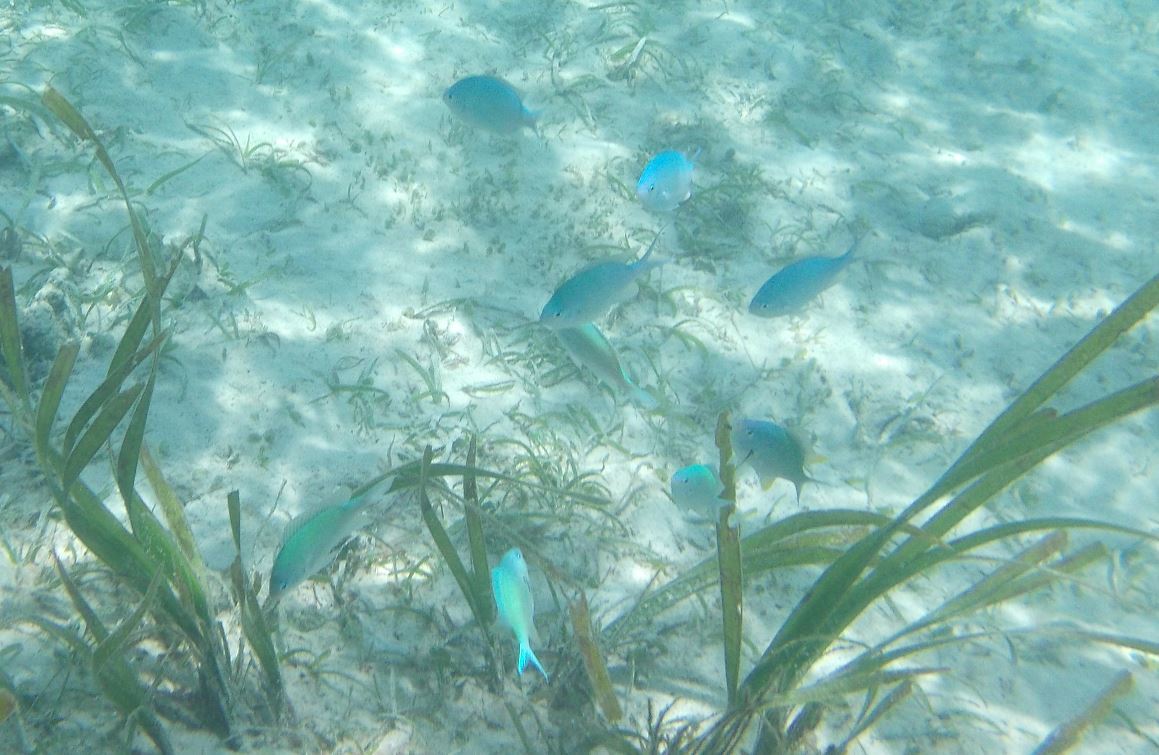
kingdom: Animalia
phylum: Chordata
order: Perciformes
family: Pomacentridae
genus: Chromis
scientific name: Chromis viridis
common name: Blue-green chromis
